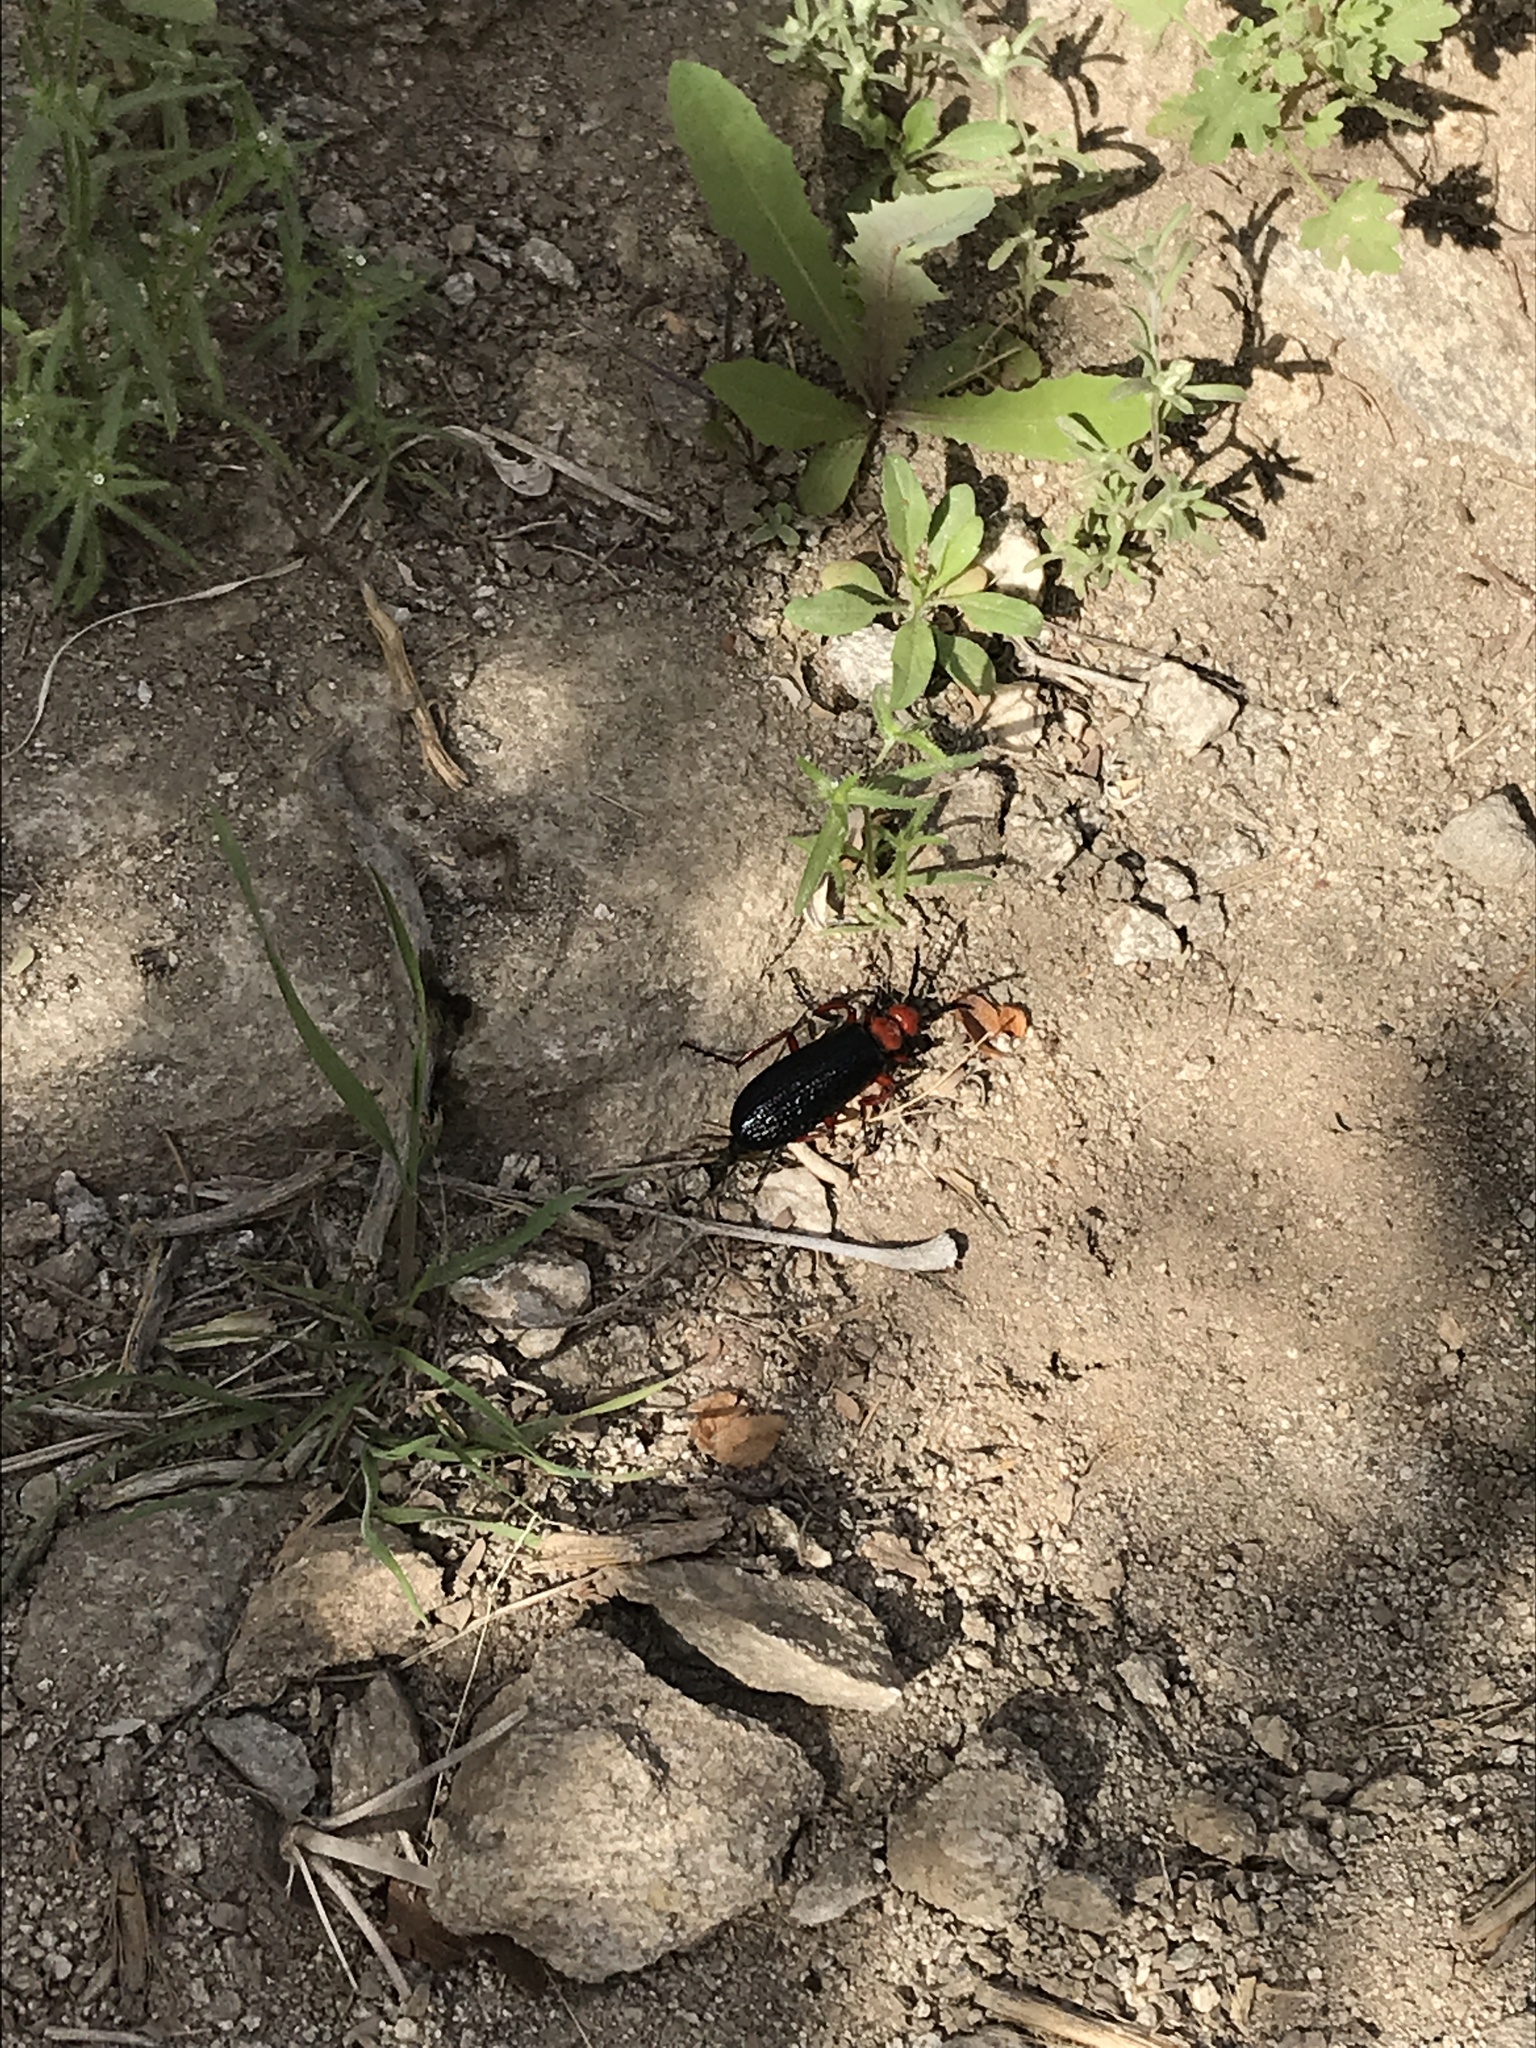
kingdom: Animalia
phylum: Arthropoda
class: Insecta
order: Coleoptera
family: Meloidae
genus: Lytta
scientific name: Lytta magister
